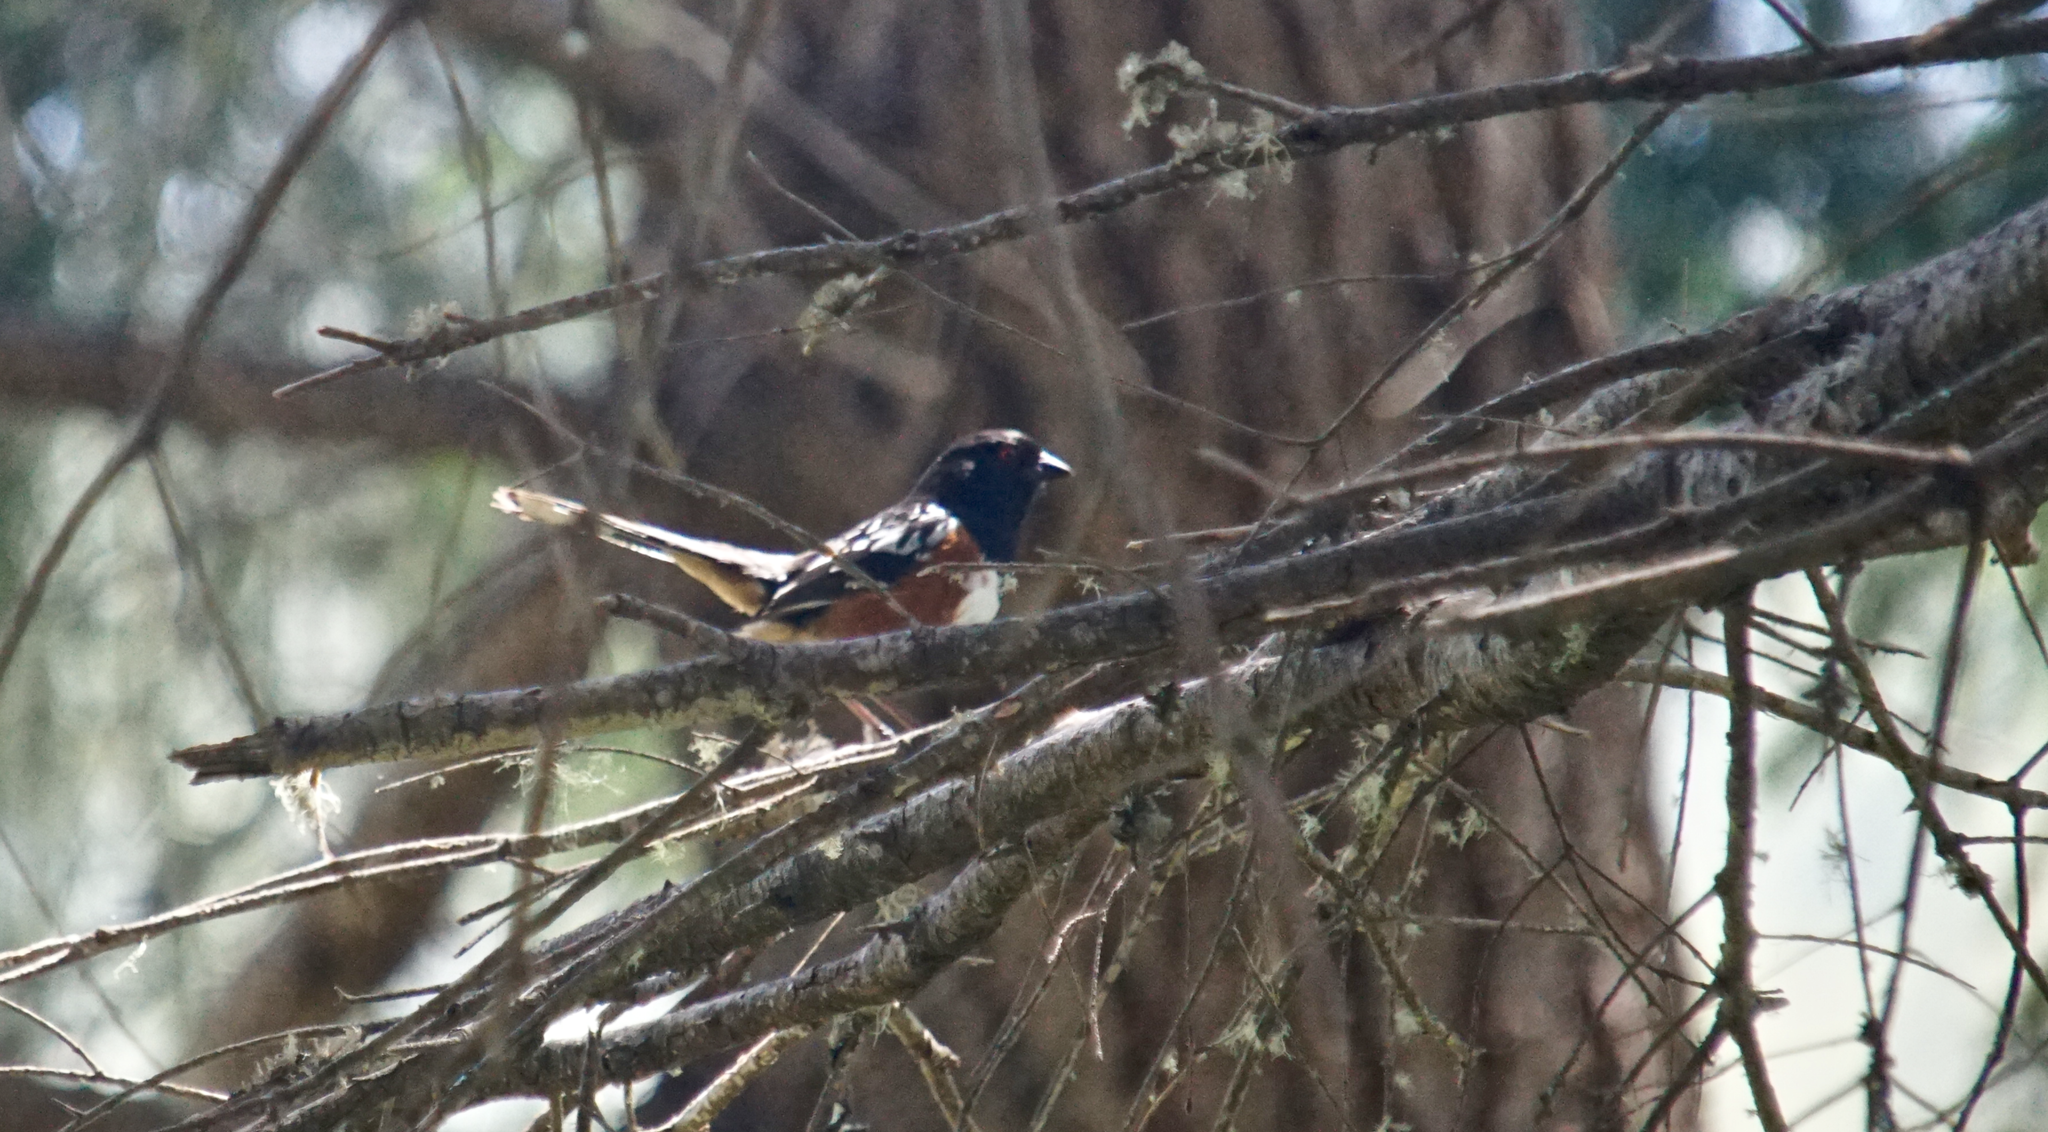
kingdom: Animalia
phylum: Chordata
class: Aves
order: Passeriformes
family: Passerellidae
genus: Pipilo
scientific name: Pipilo maculatus
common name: Spotted towhee
